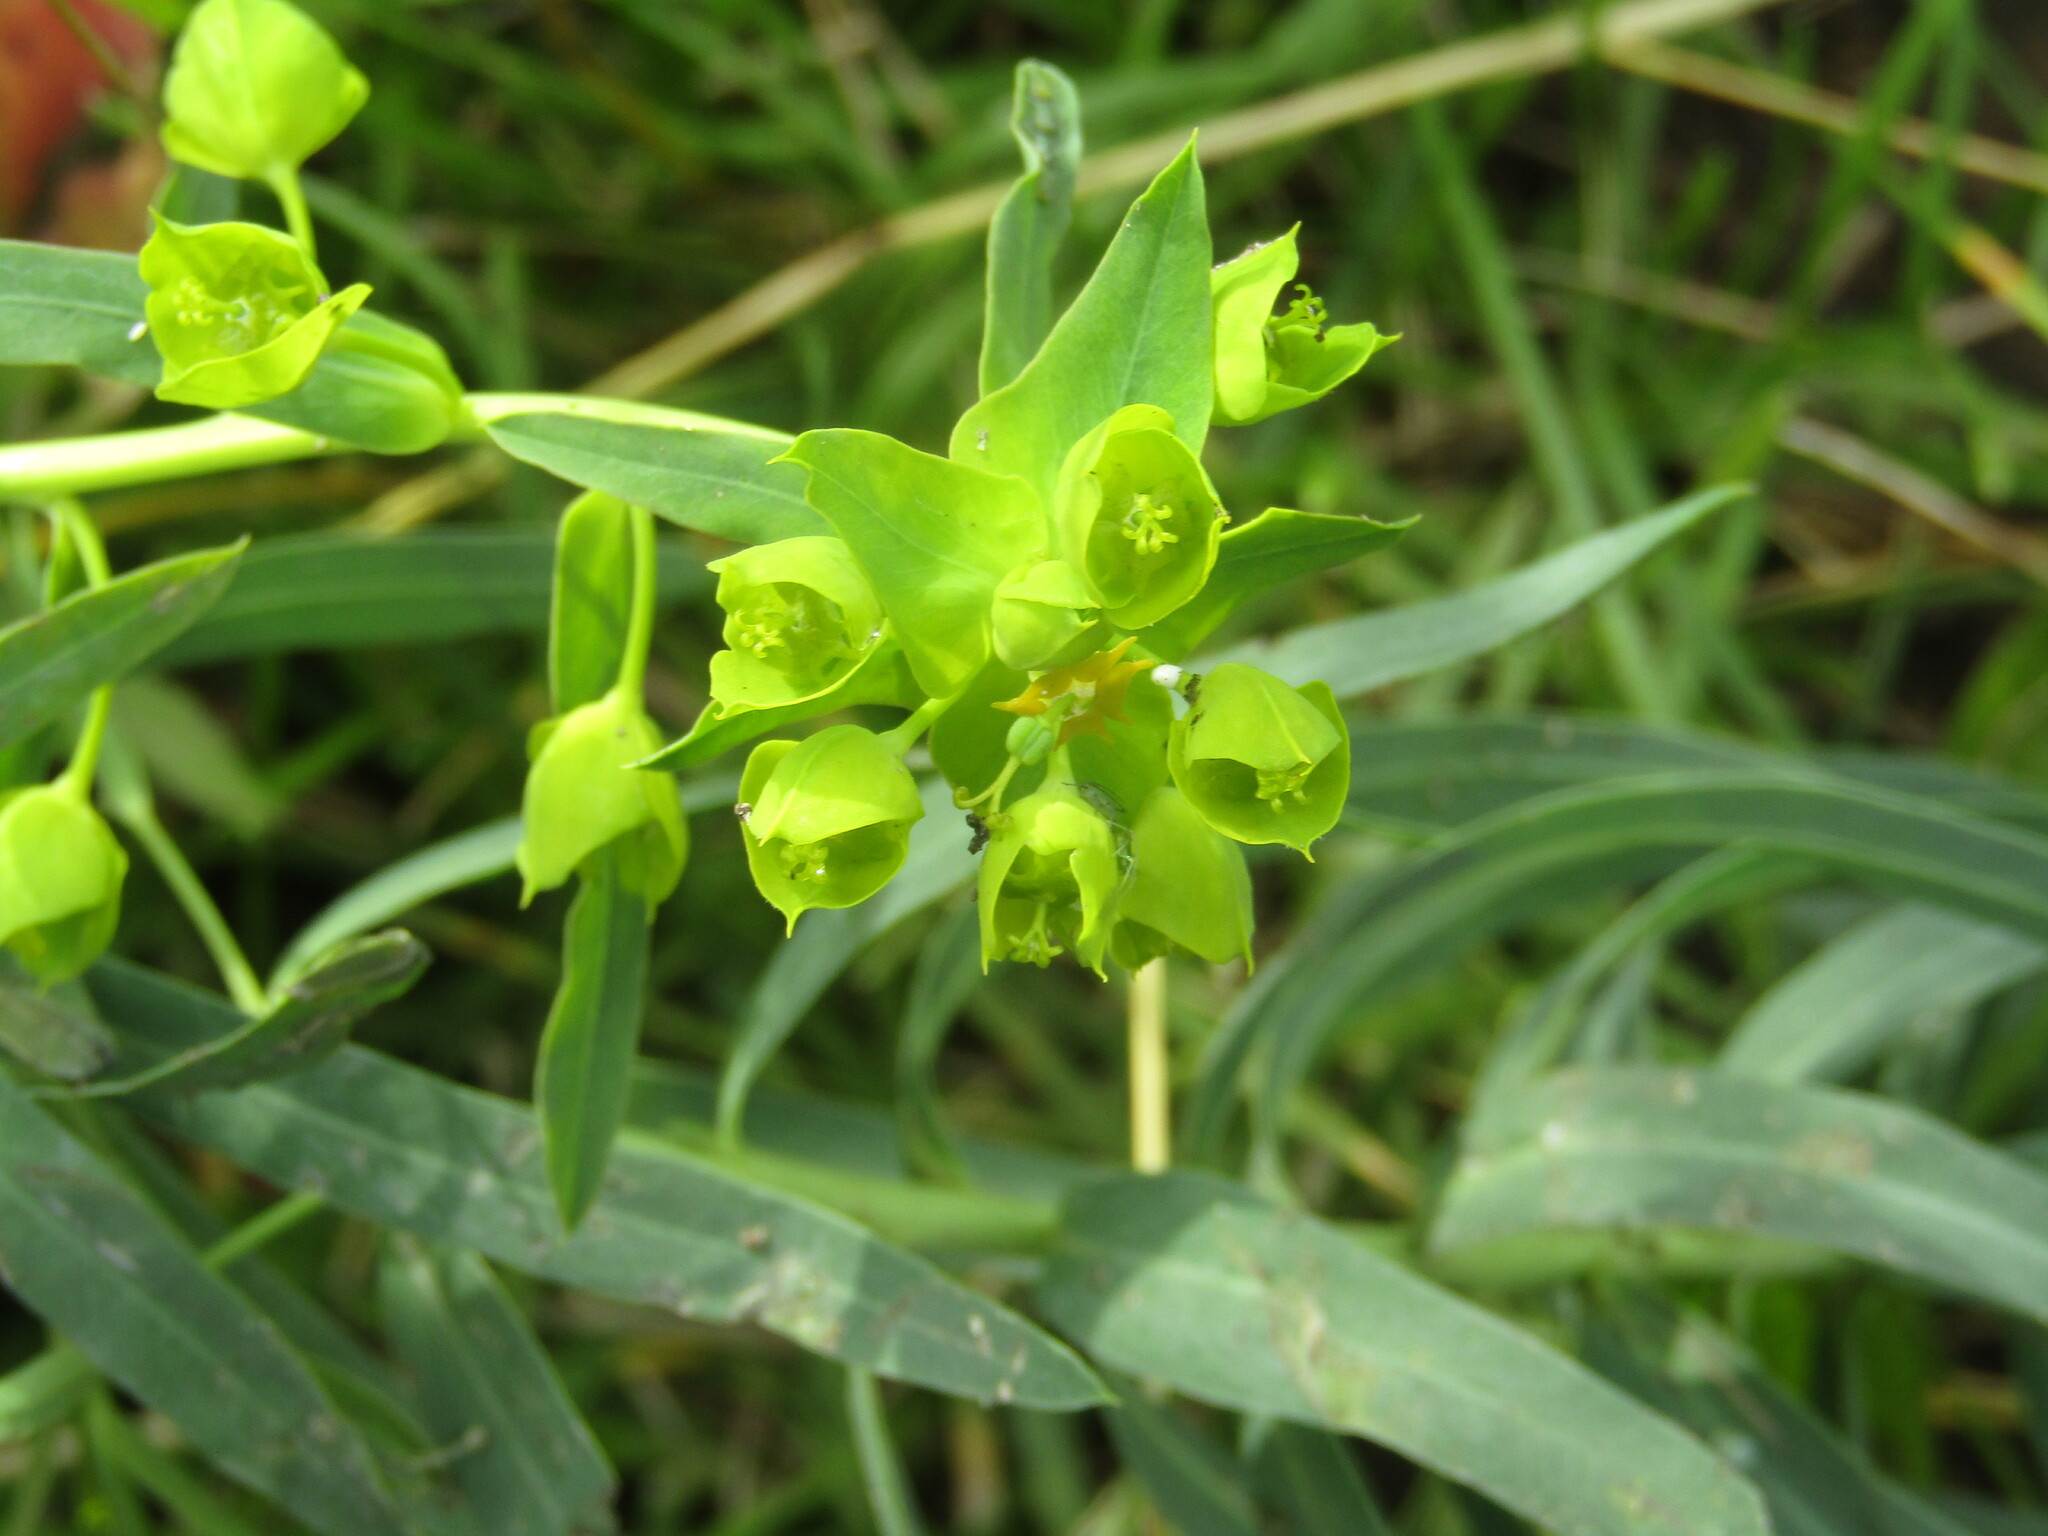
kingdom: Plantae
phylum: Tracheophyta
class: Magnoliopsida
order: Malpighiales
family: Euphorbiaceae
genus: Euphorbia
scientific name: Euphorbia virgata
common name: Leafy spurge
